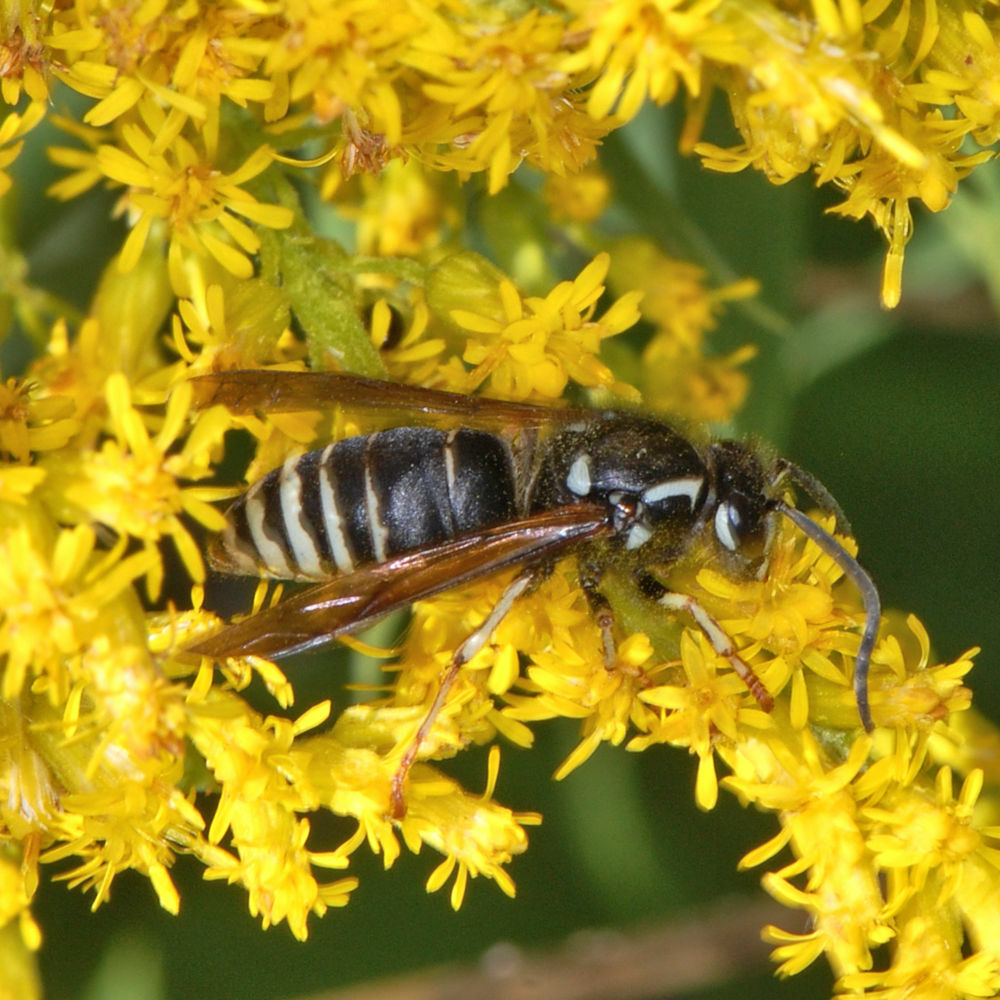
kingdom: Animalia
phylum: Arthropoda
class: Insecta
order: Hymenoptera
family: Vespidae
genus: Dolichovespula
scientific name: Dolichovespula adulterina
